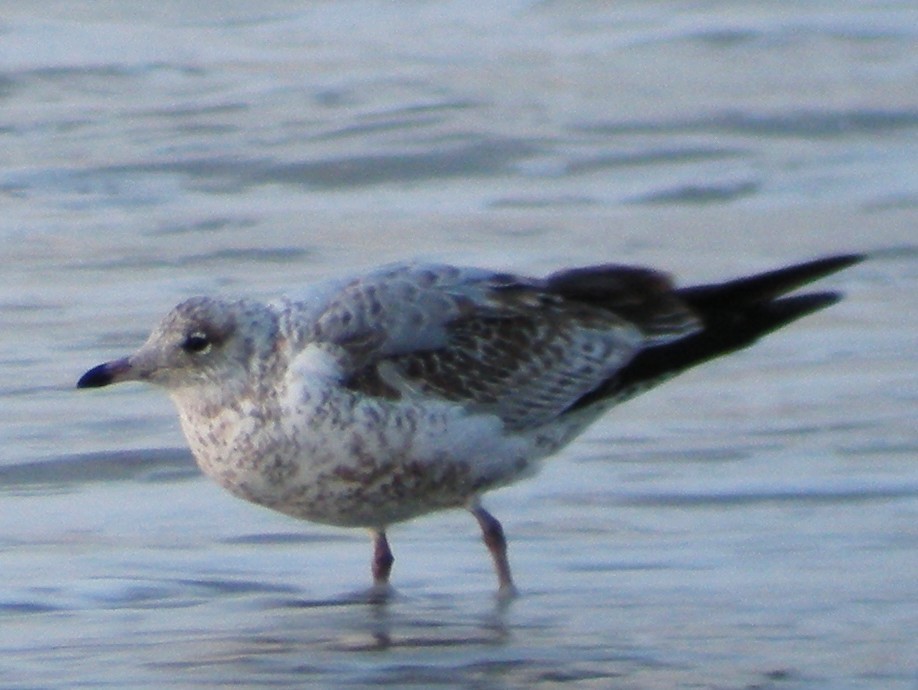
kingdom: Animalia
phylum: Chordata
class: Aves
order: Charadriiformes
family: Laridae
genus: Larus
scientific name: Larus delawarensis
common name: Ring-billed gull
